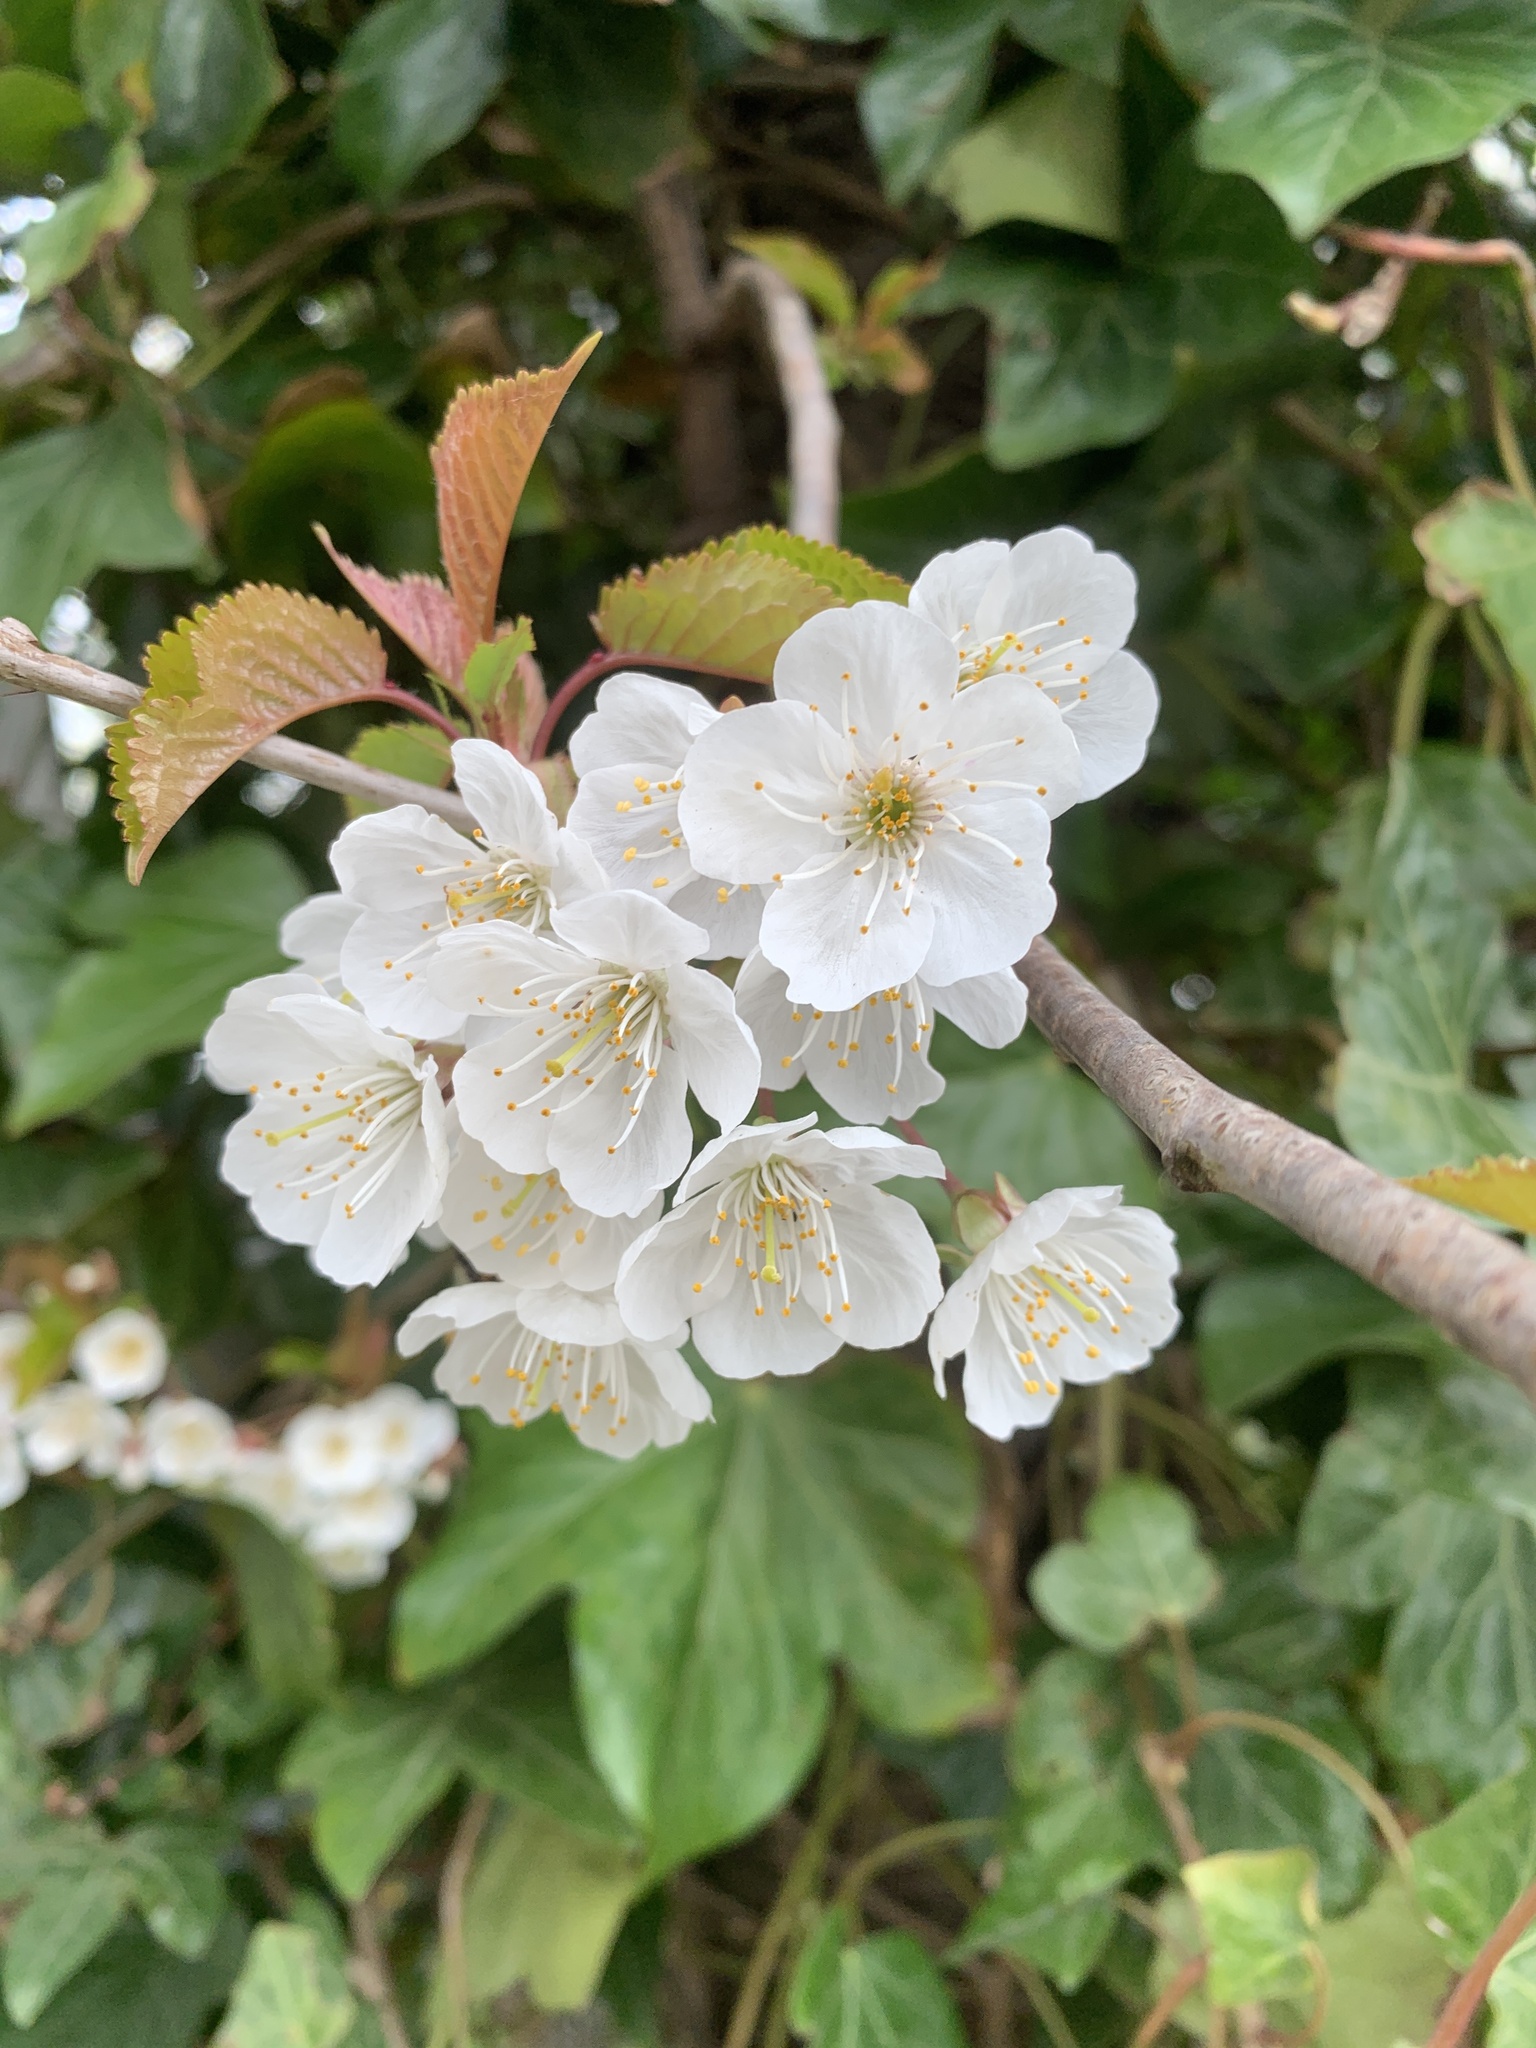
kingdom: Plantae
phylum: Tracheophyta
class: Magnoliopsida
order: Rosales
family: Rosaceae
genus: Prunus
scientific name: Prunus avium
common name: Sweet cherry
